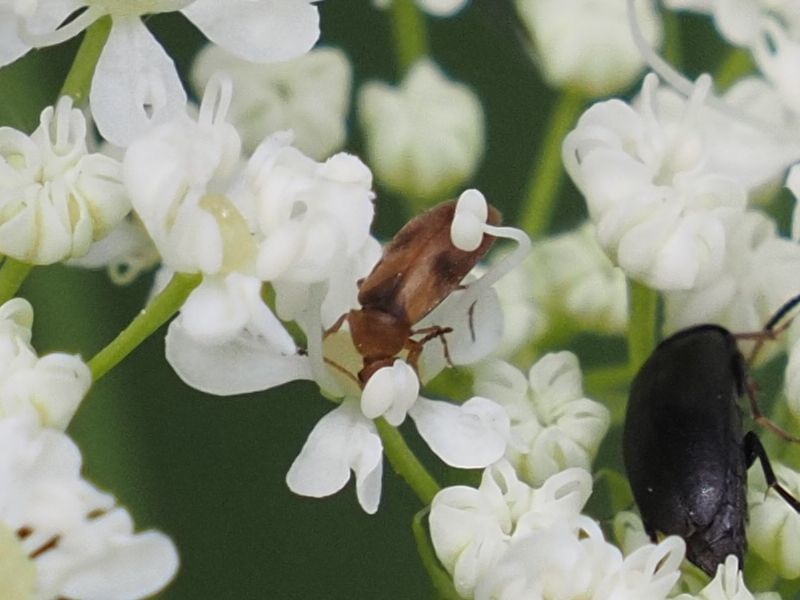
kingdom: Animalia
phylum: Arthropoda
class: Insecta
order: Coleoptera
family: Scraptiidae
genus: Anaspis
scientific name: Anaspis maculata
